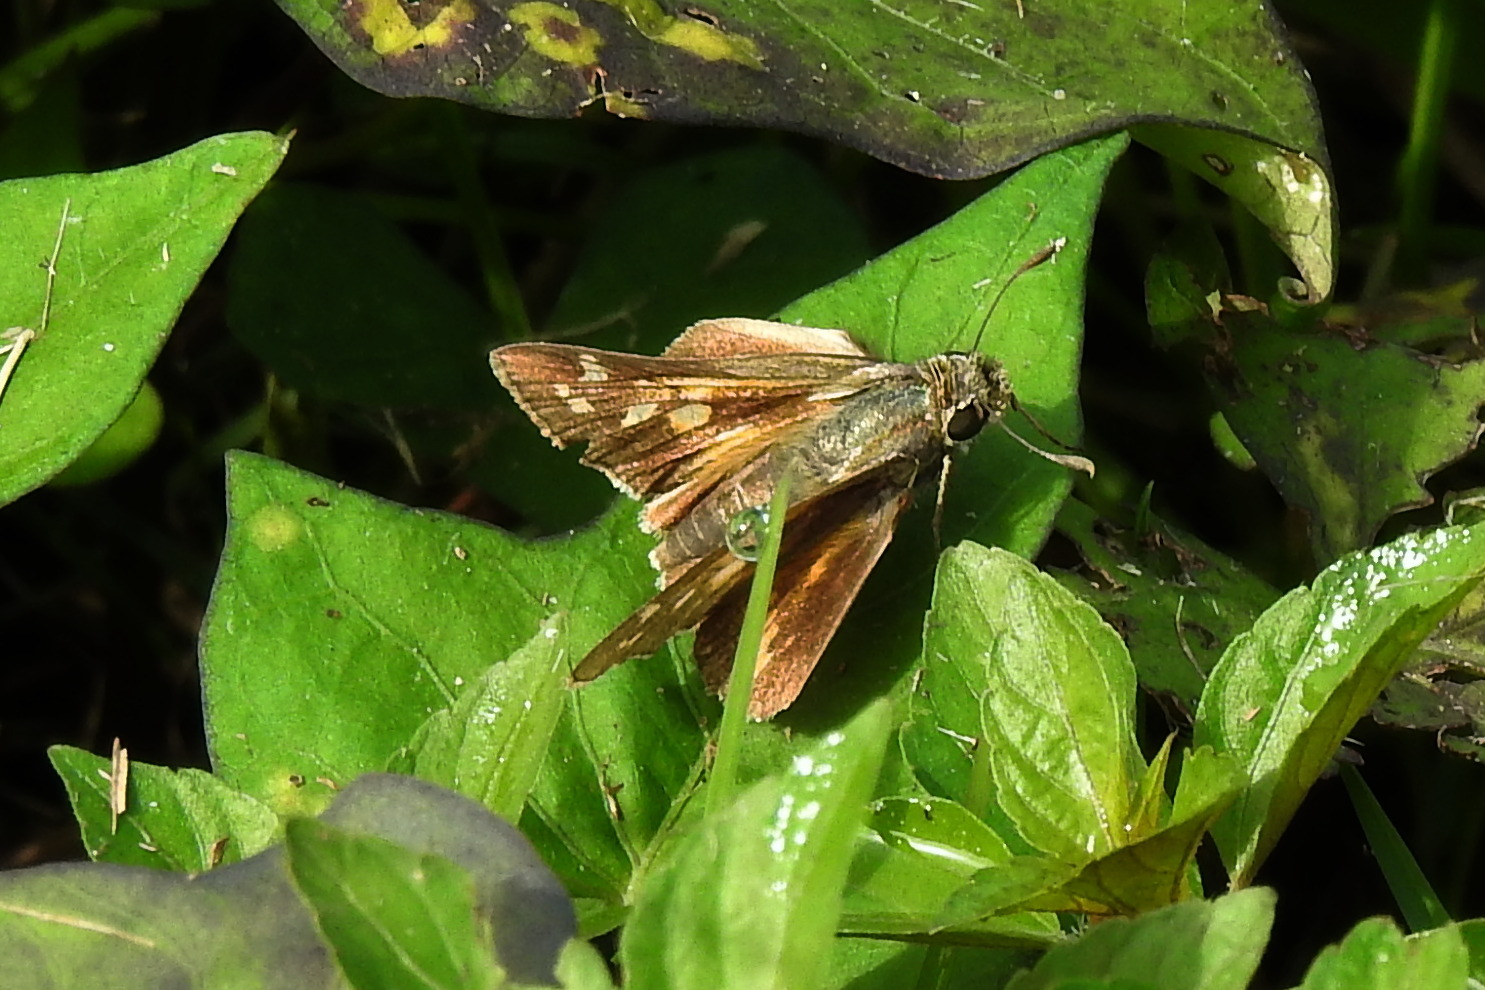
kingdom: Animalia
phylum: Arthropoda
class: Insecta
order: Lepidoptera
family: Hesperiidae
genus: Atalopedes
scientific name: Atalopedes
